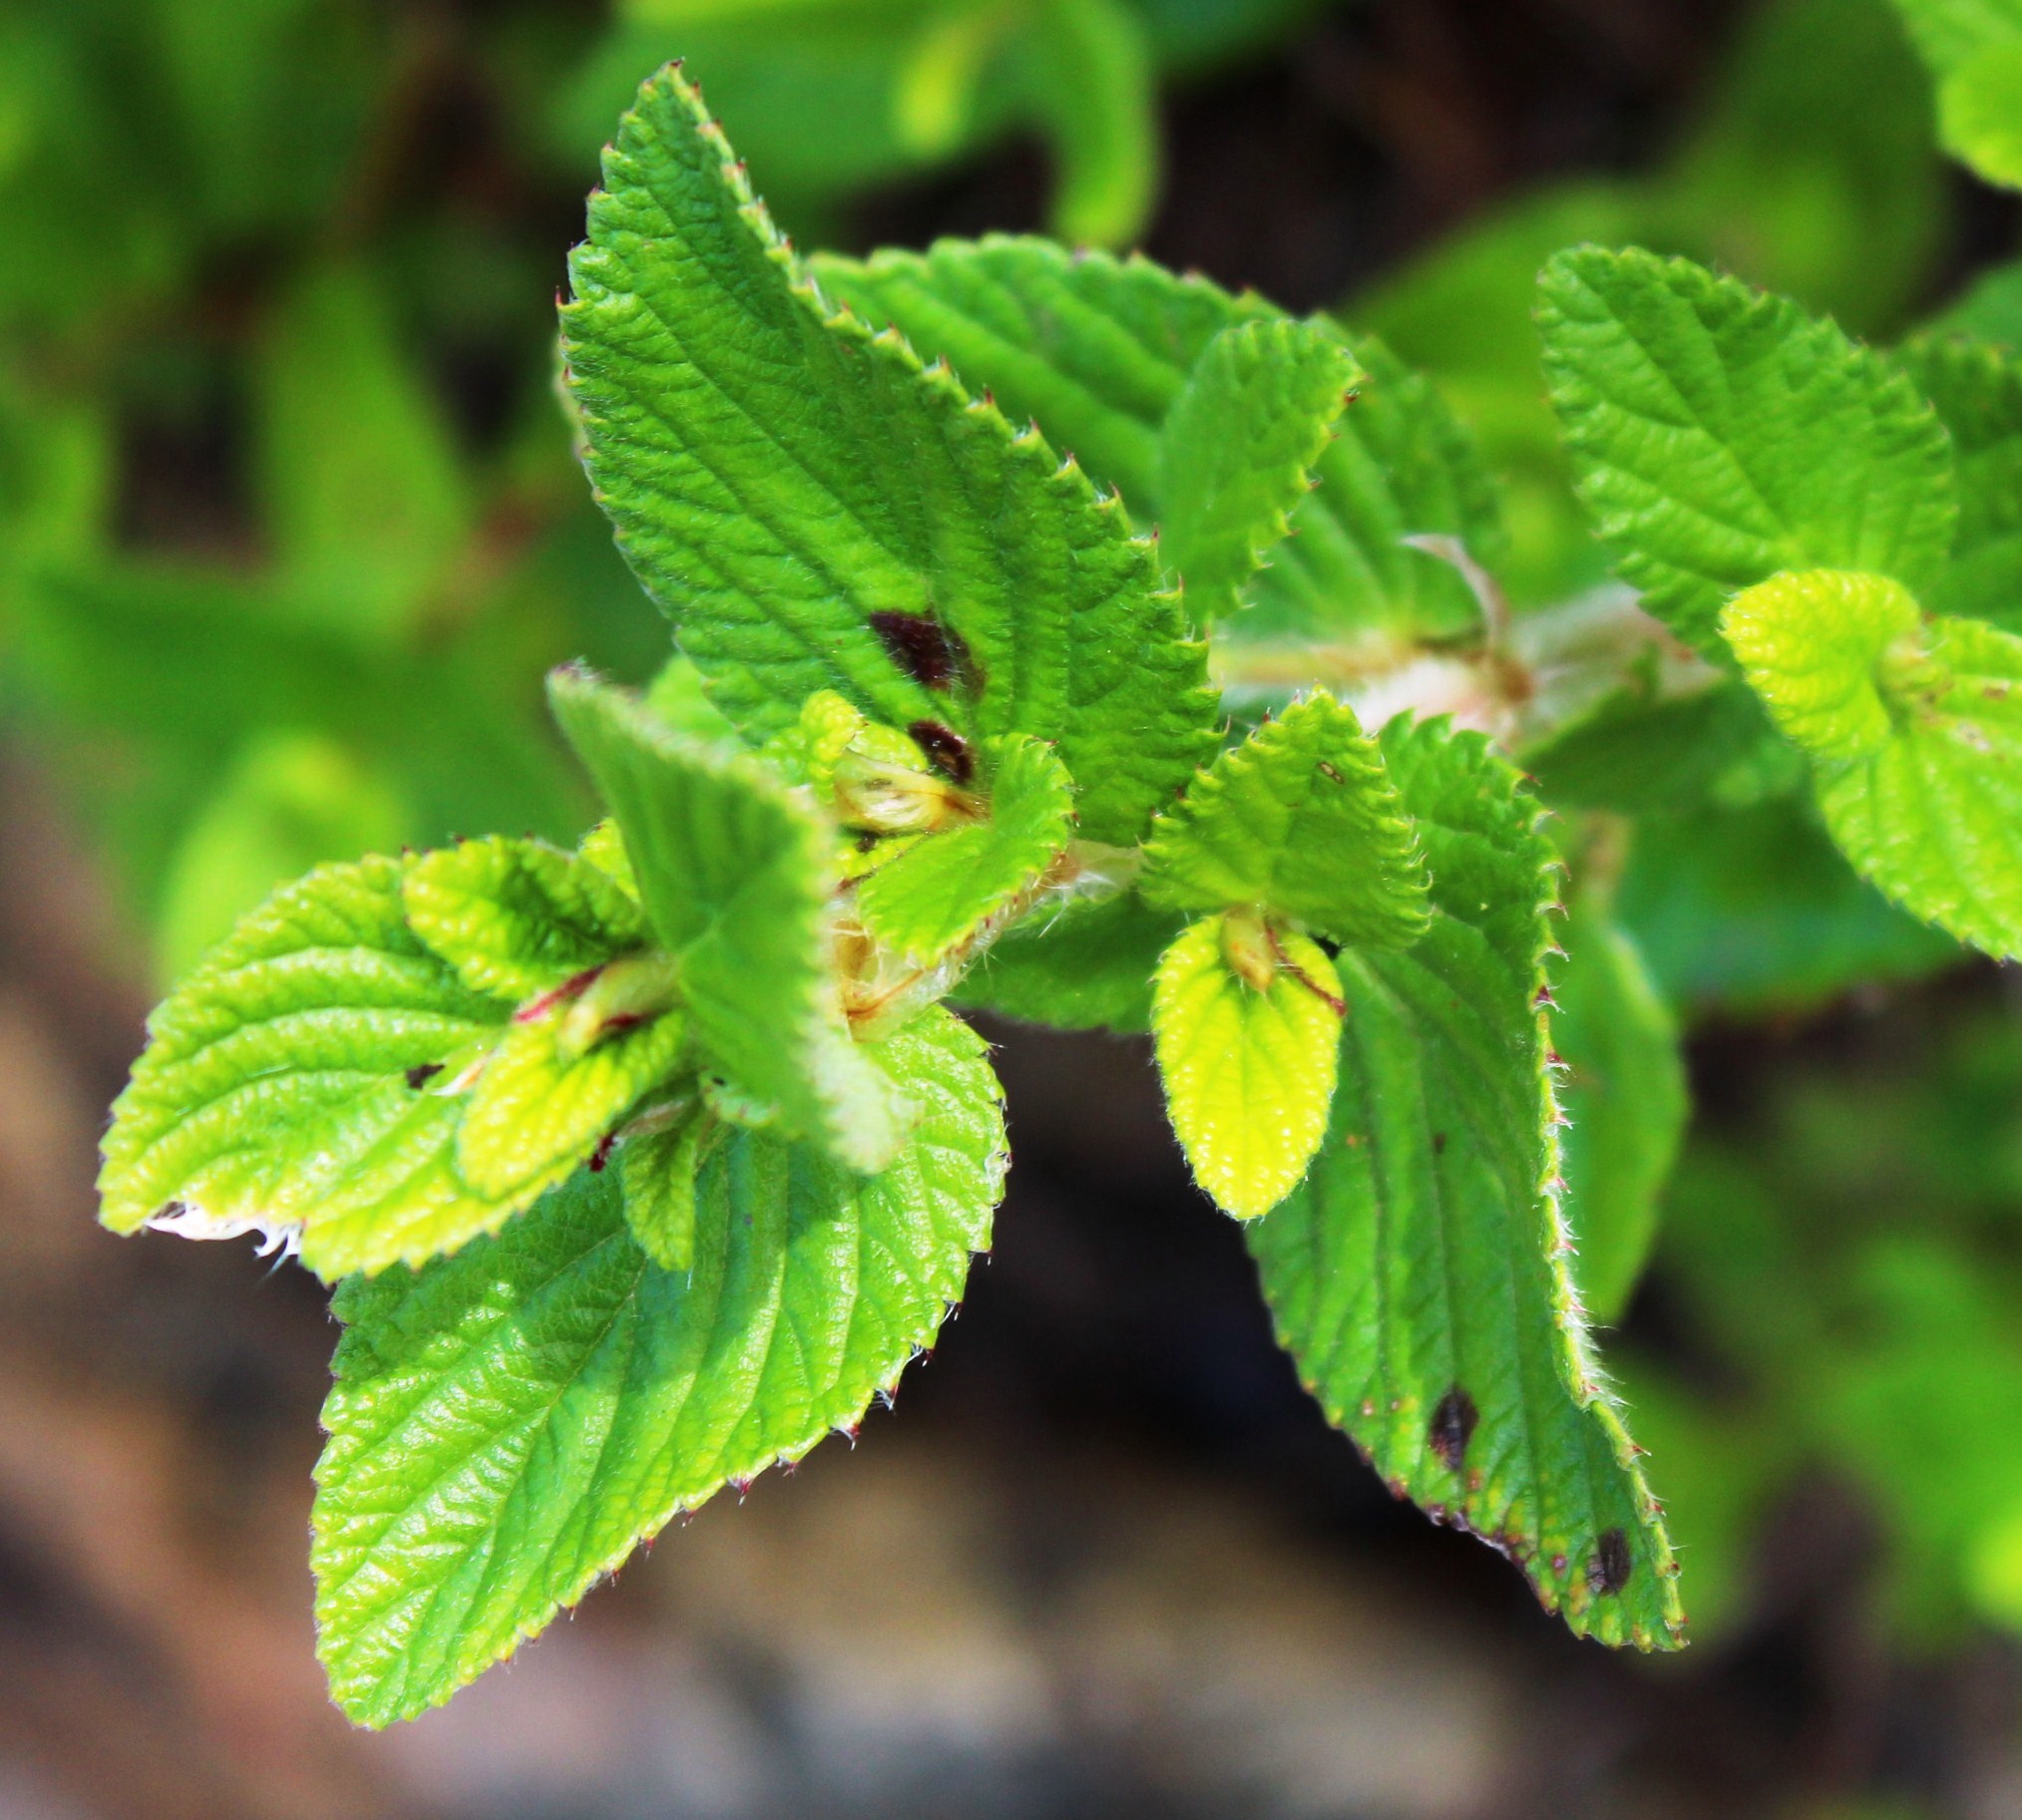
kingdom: Plantae
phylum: Tracheophyta
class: Magnoliopsida
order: Rosales
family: Rosaceae
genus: Cliffortia
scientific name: Cliffortia odorata
